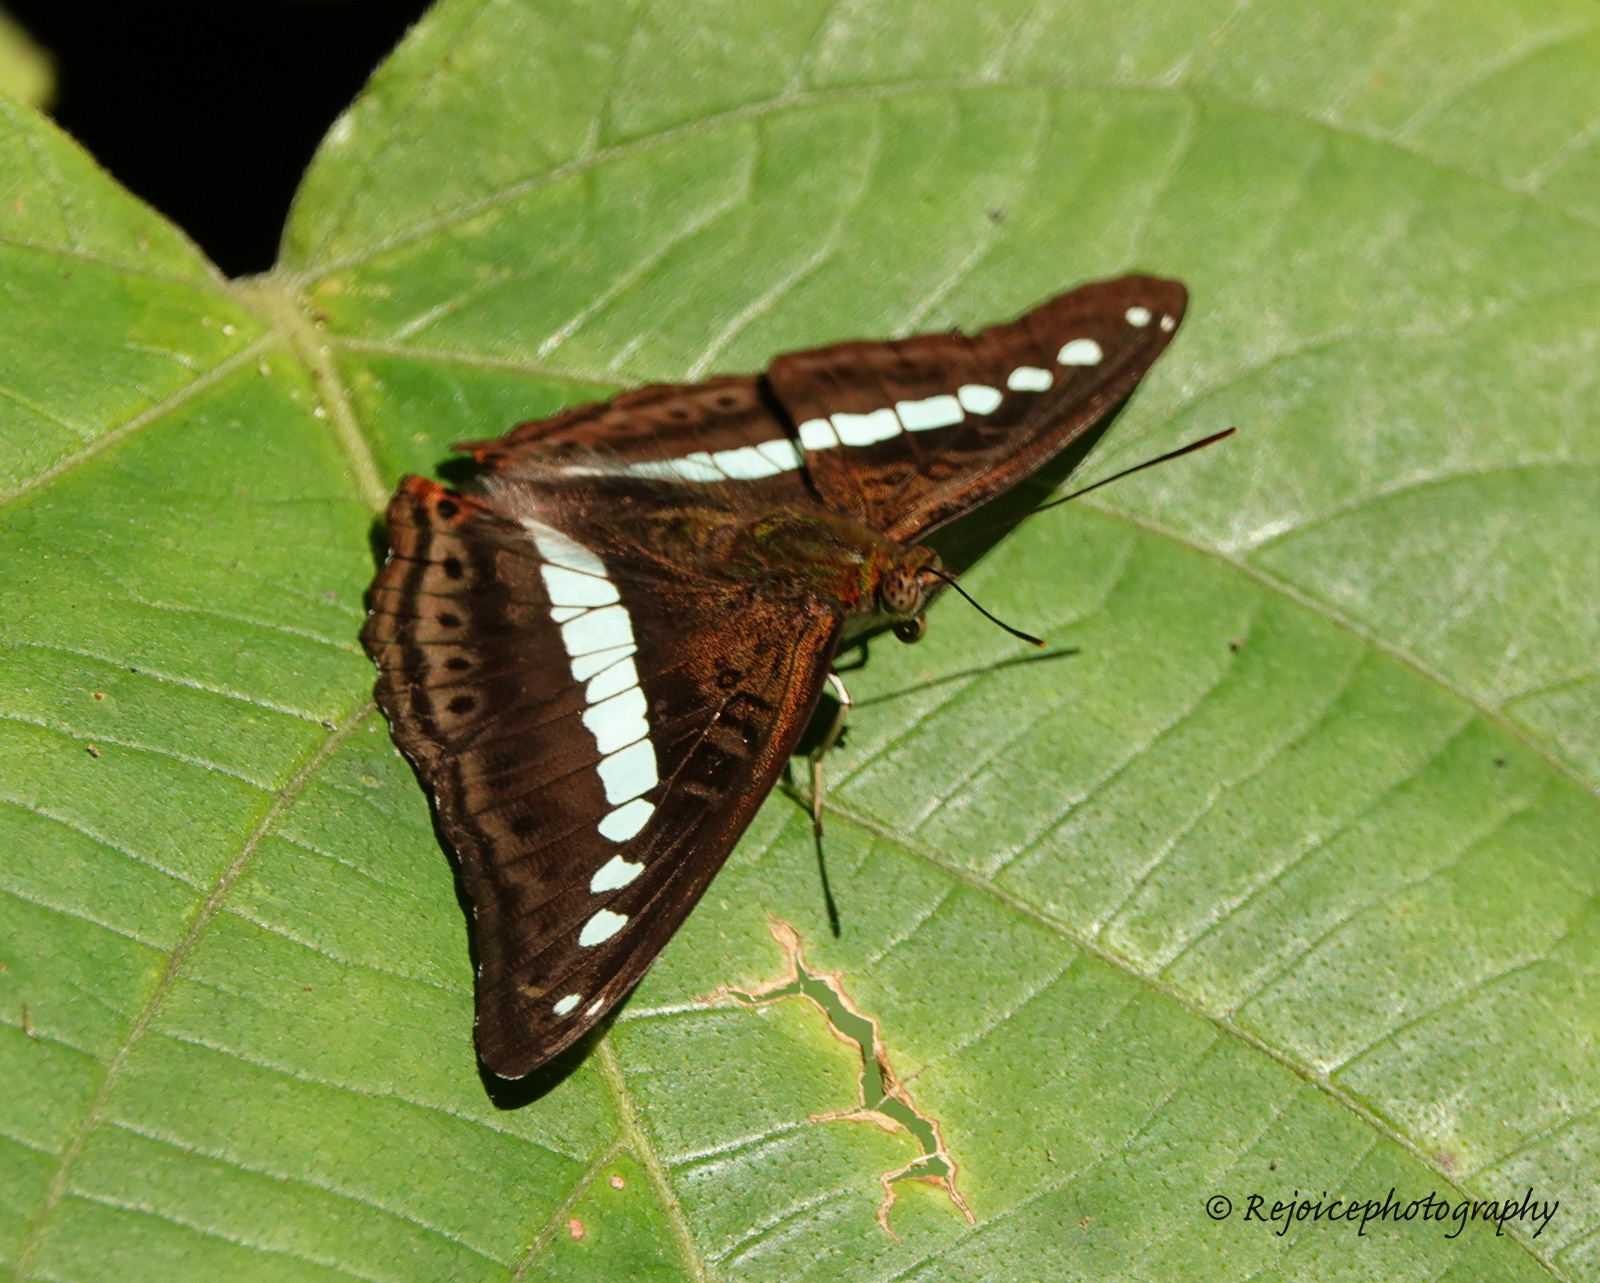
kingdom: Animalia
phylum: Arthropoda
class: Insecta
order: Lepidoptera
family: Nymphalidae
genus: Limenitis
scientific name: Limenitis Sumalia daraxa
